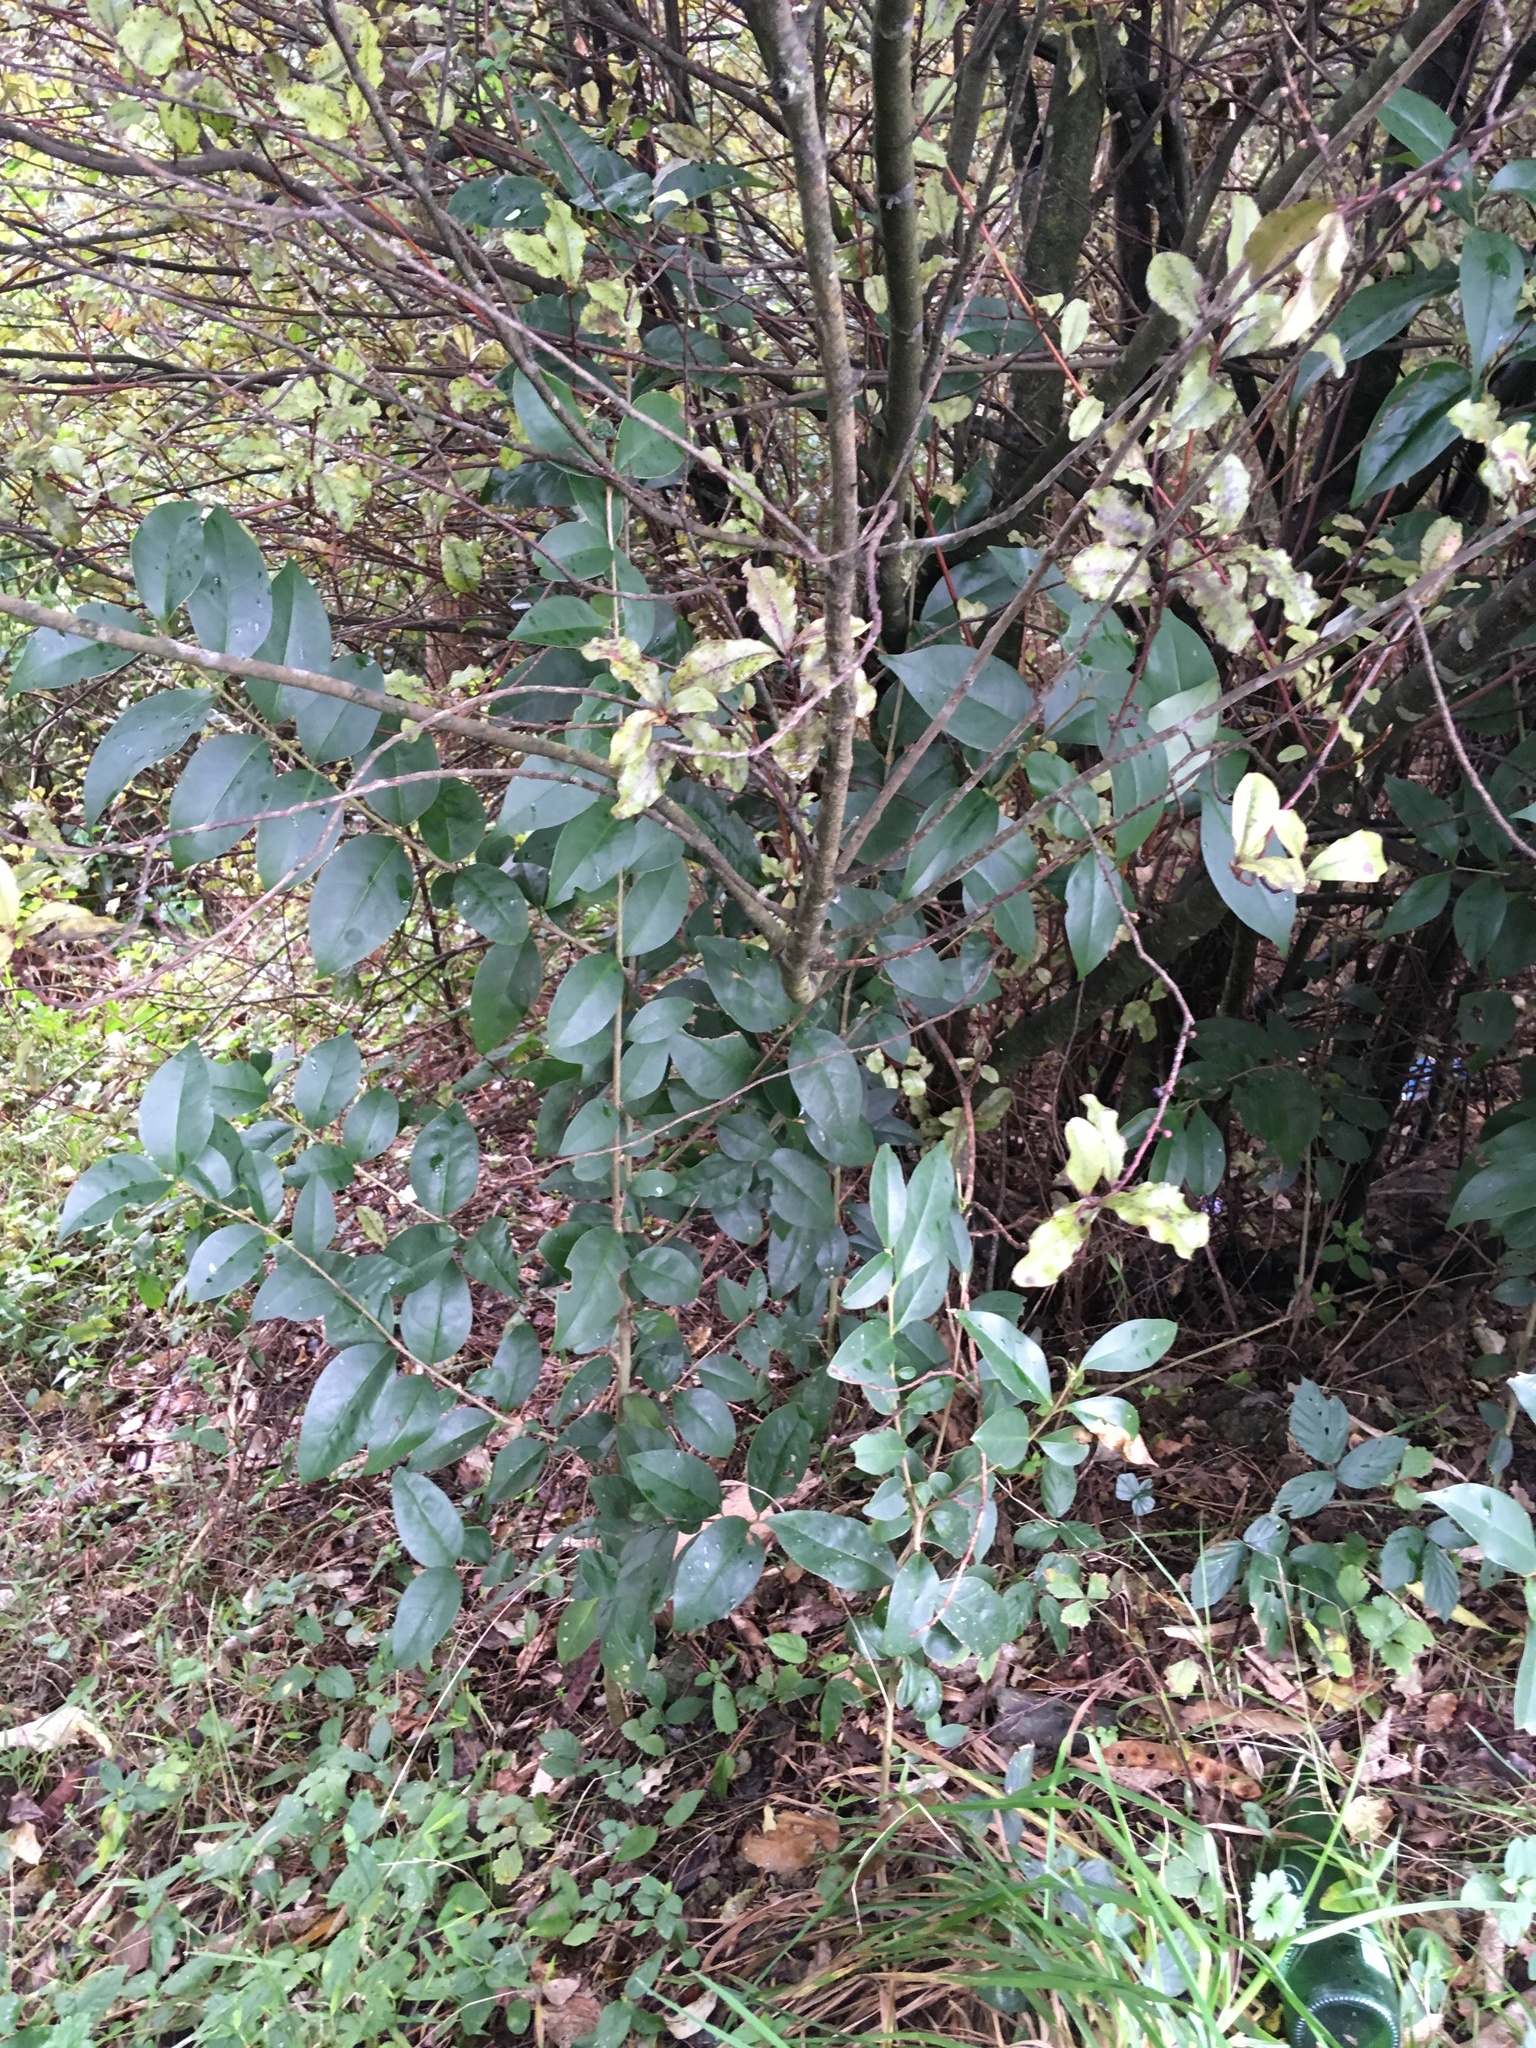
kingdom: Plantae
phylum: Tracheophyta
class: Magnoliopsida
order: Lamiales
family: Oleaceae
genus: Ligustrum
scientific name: Ligustrum lucidum
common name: Glossy privet
